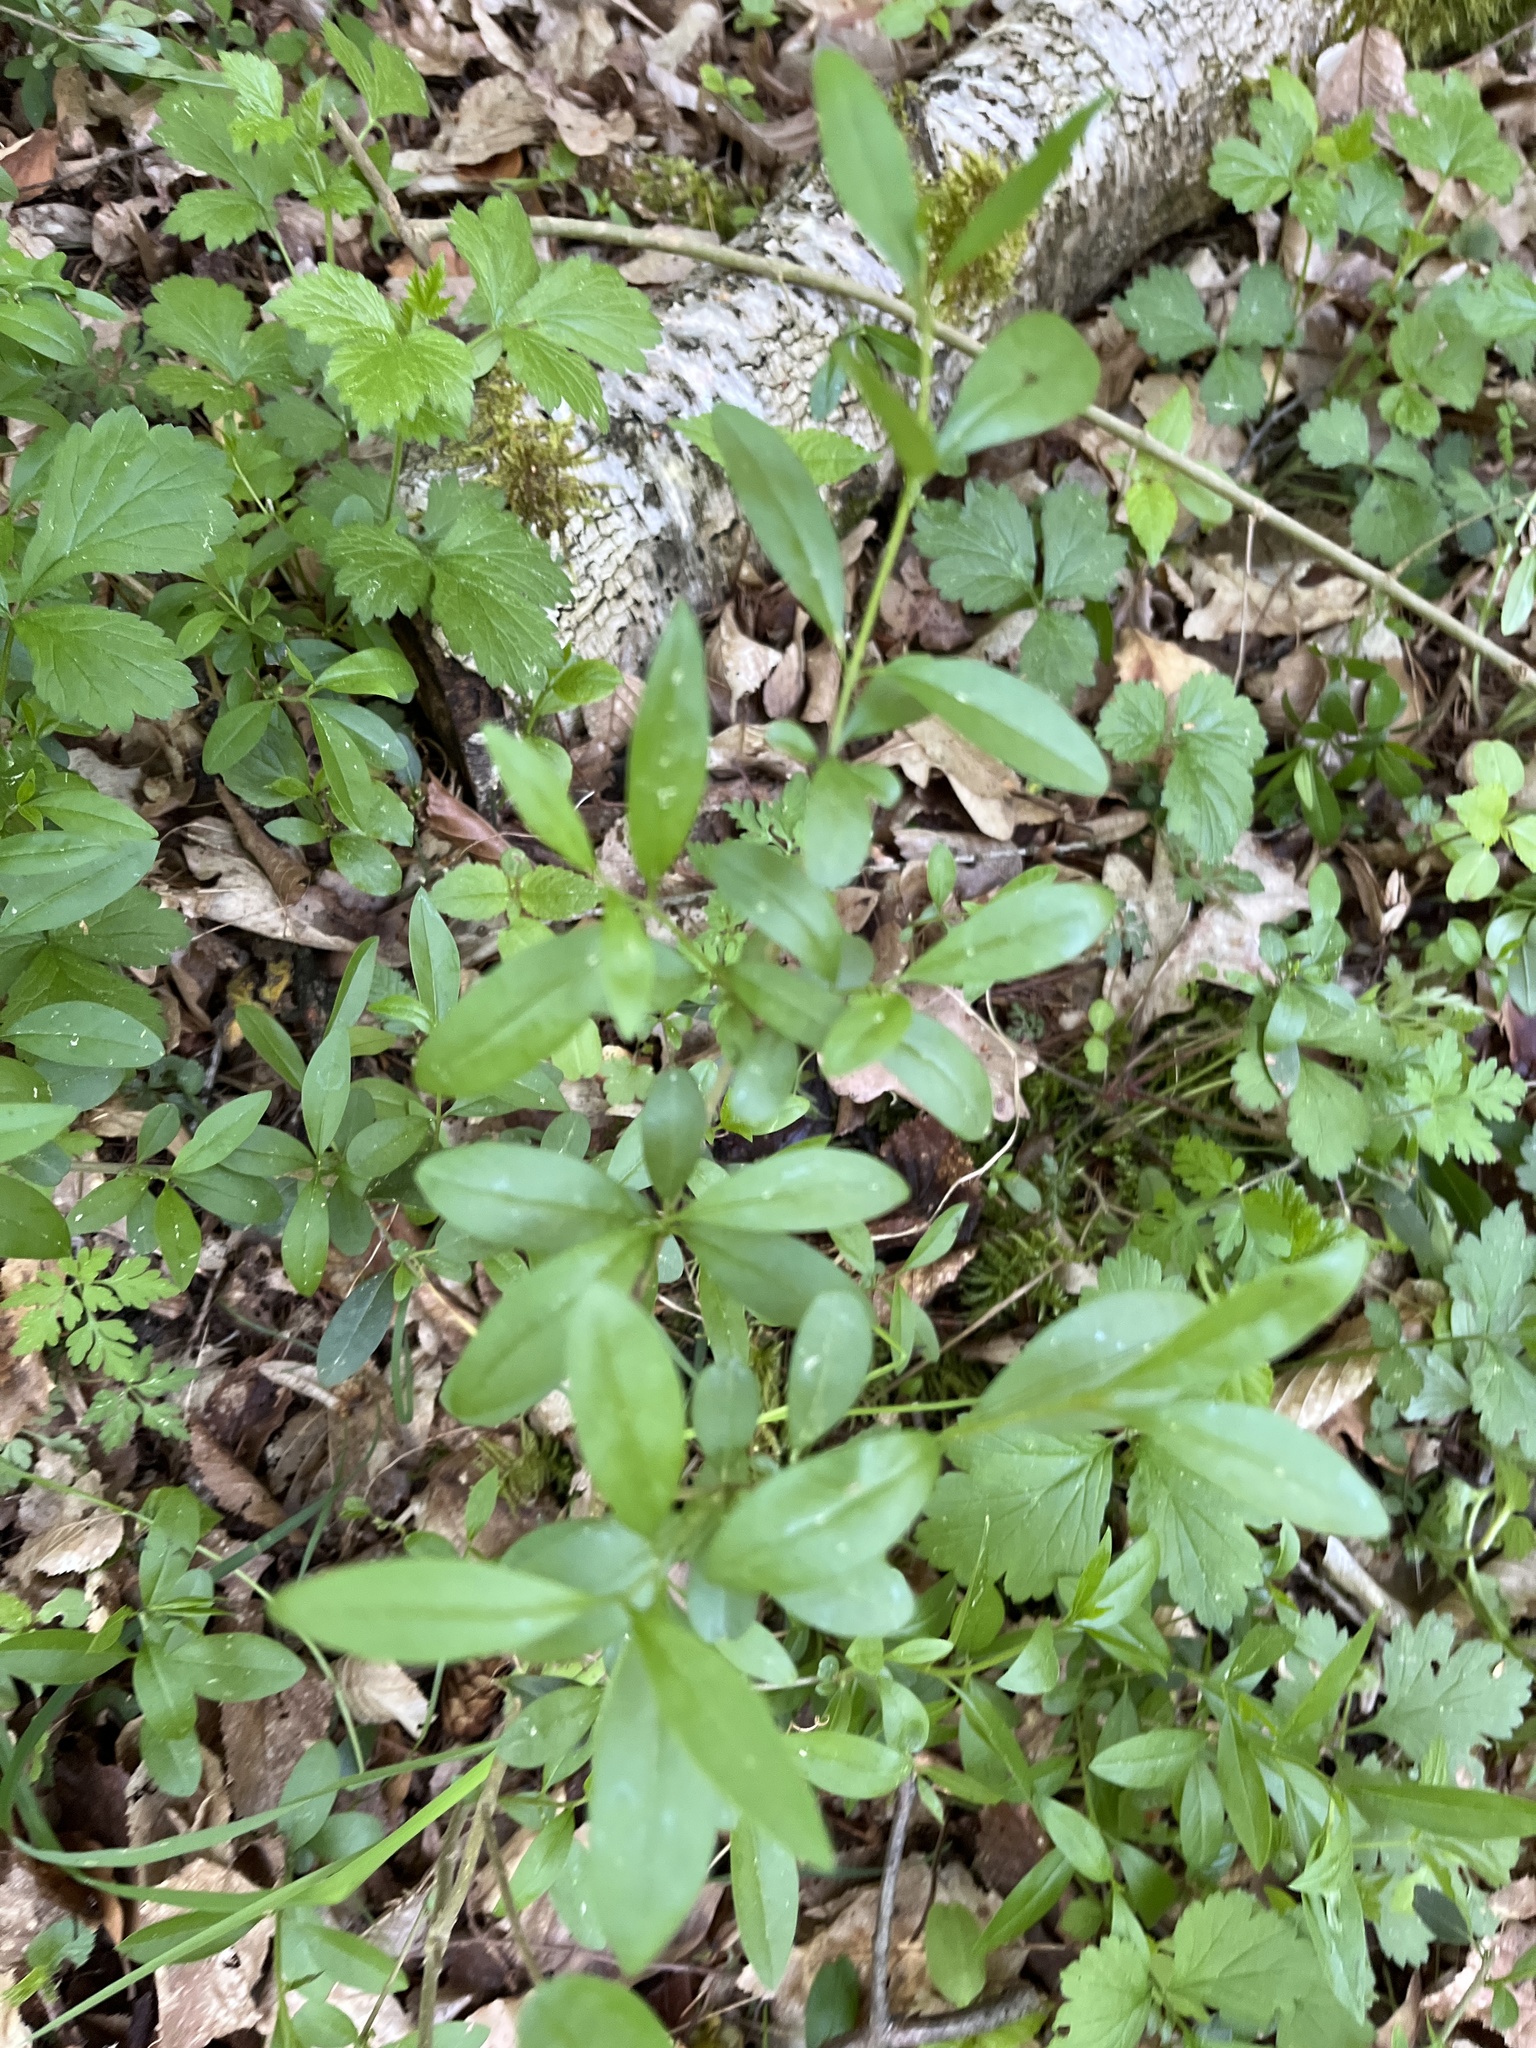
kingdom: Plantae
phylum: Tracheophyta
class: Magnoliopsida
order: Lamiales
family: Oleaceae
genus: Ligustrum
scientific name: Ligustrum vulgare
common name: Wild privet
